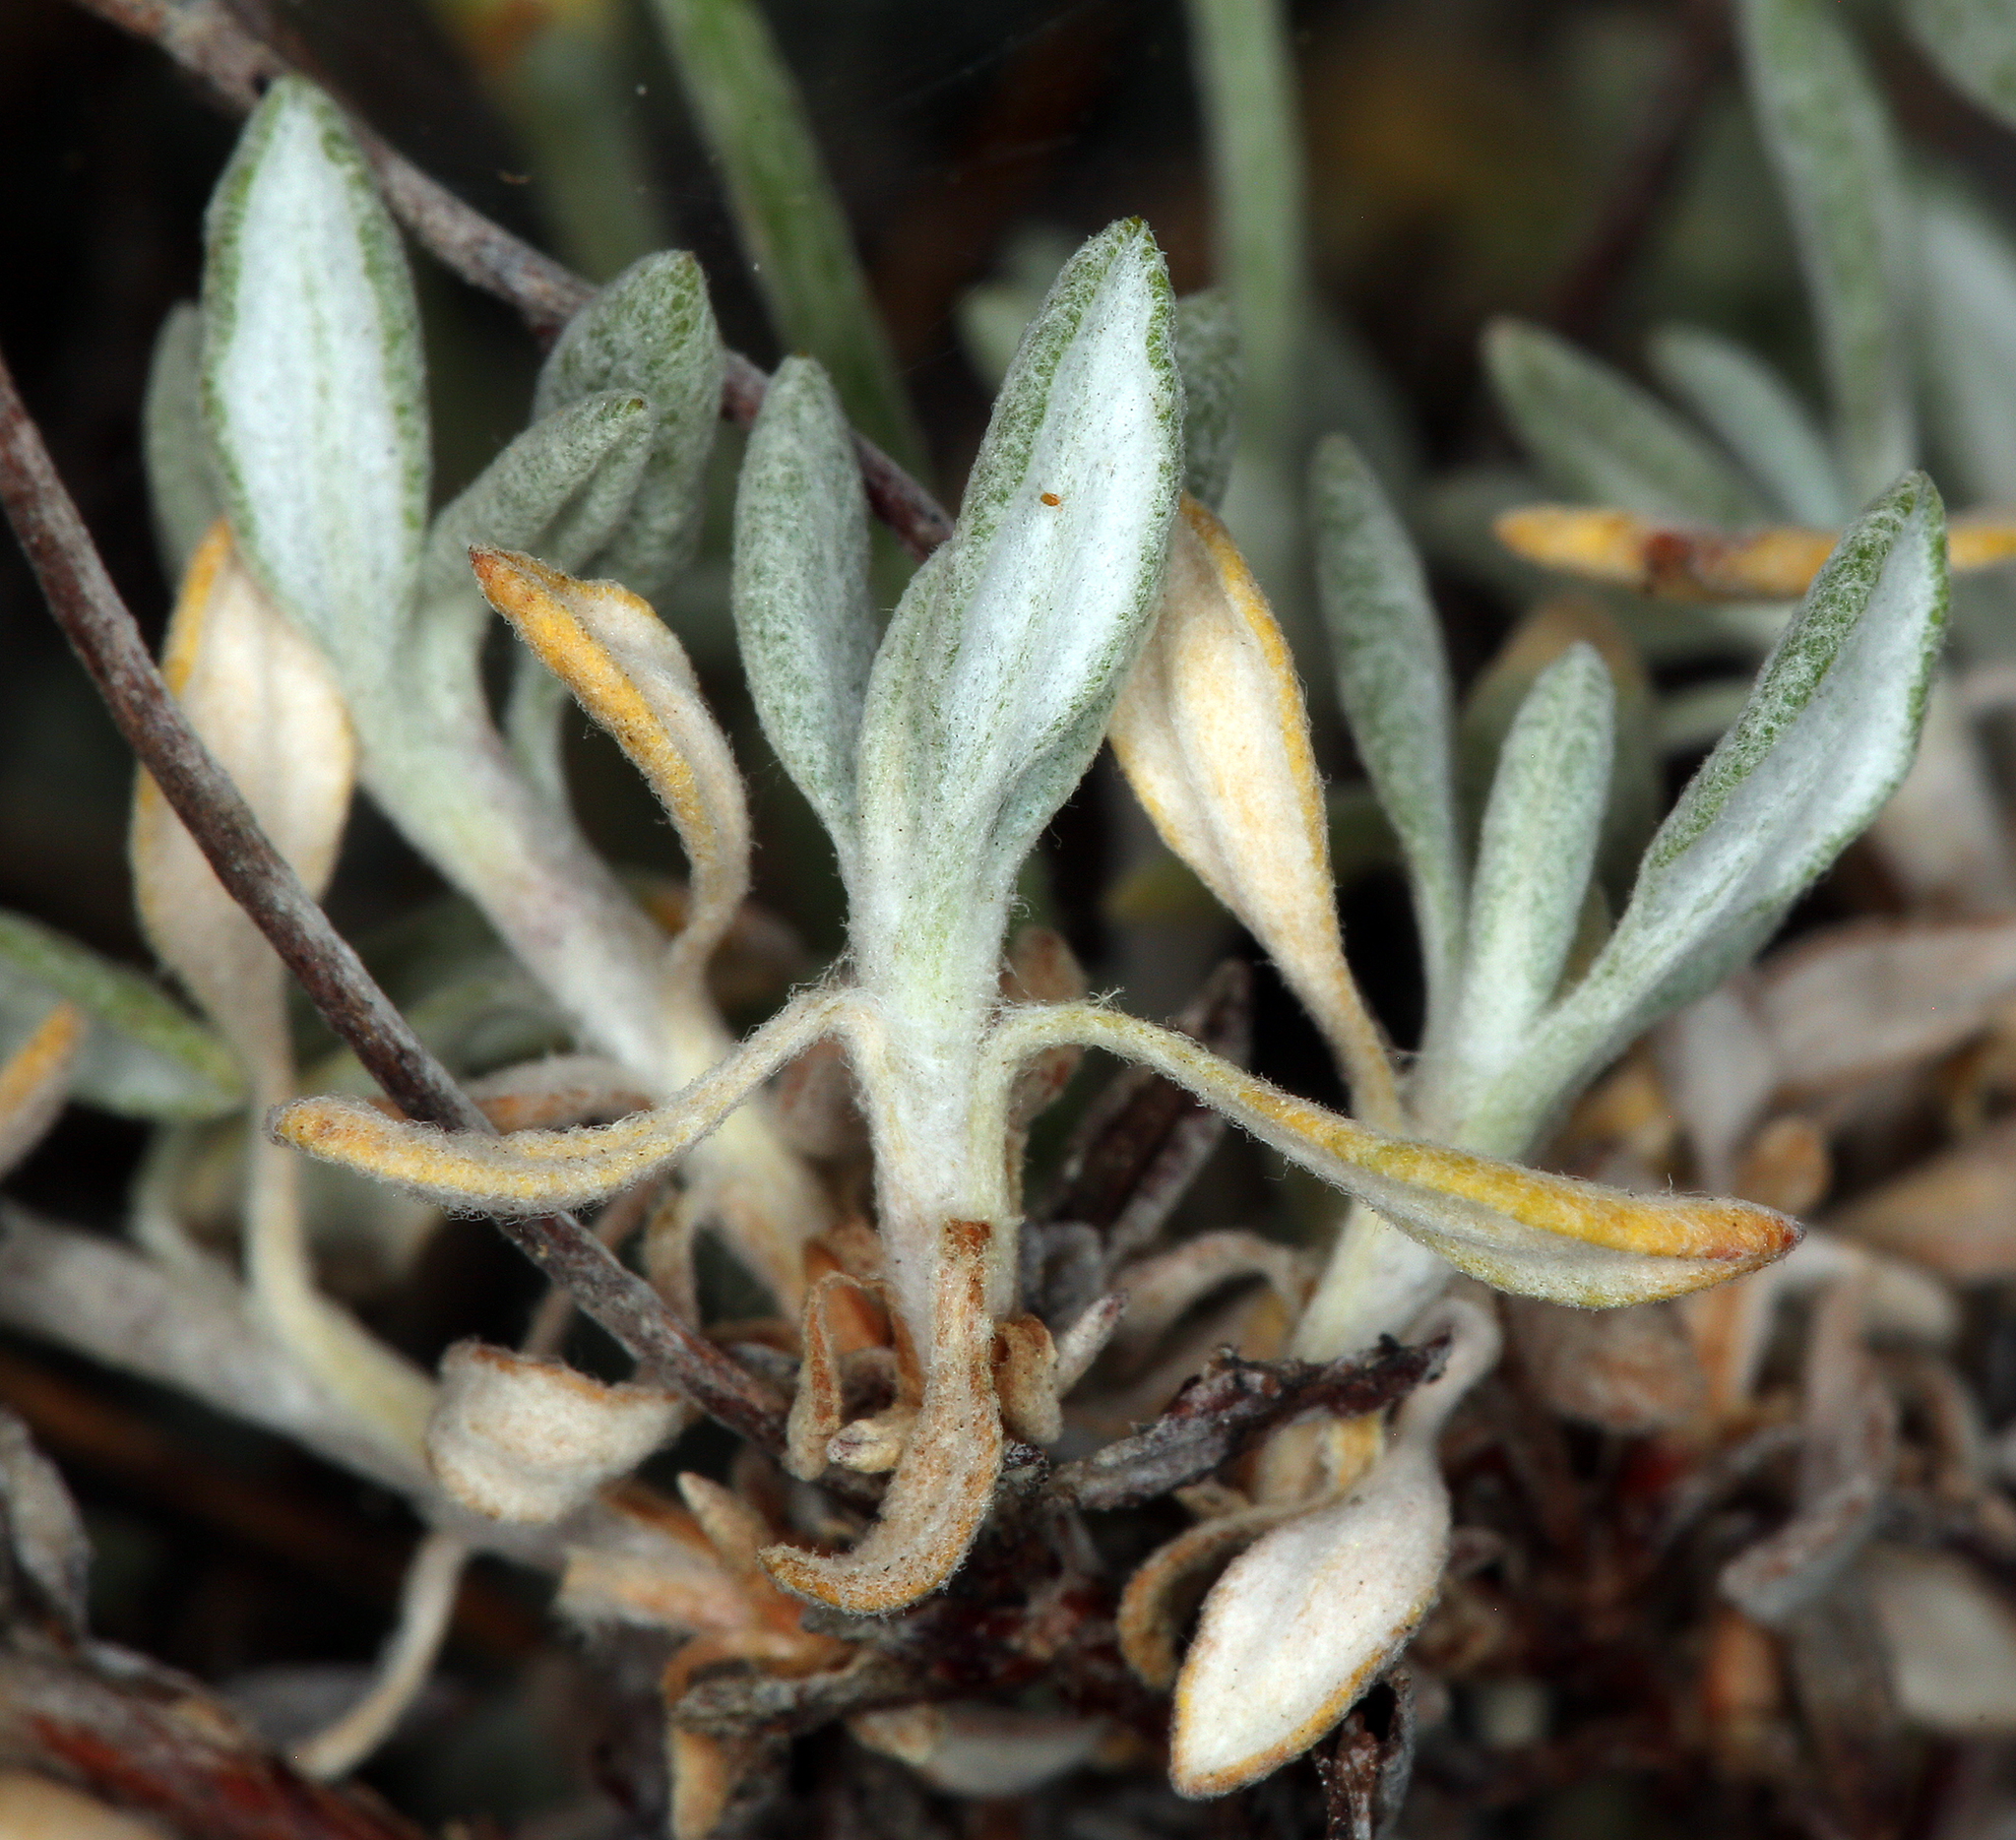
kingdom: Plantae
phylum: Tracheophyta
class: Magnoliopsida
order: Caryophyllales
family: Polygonaceae
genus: Eriogonum
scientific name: Eriogonum wrightii
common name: Bastard-sage
